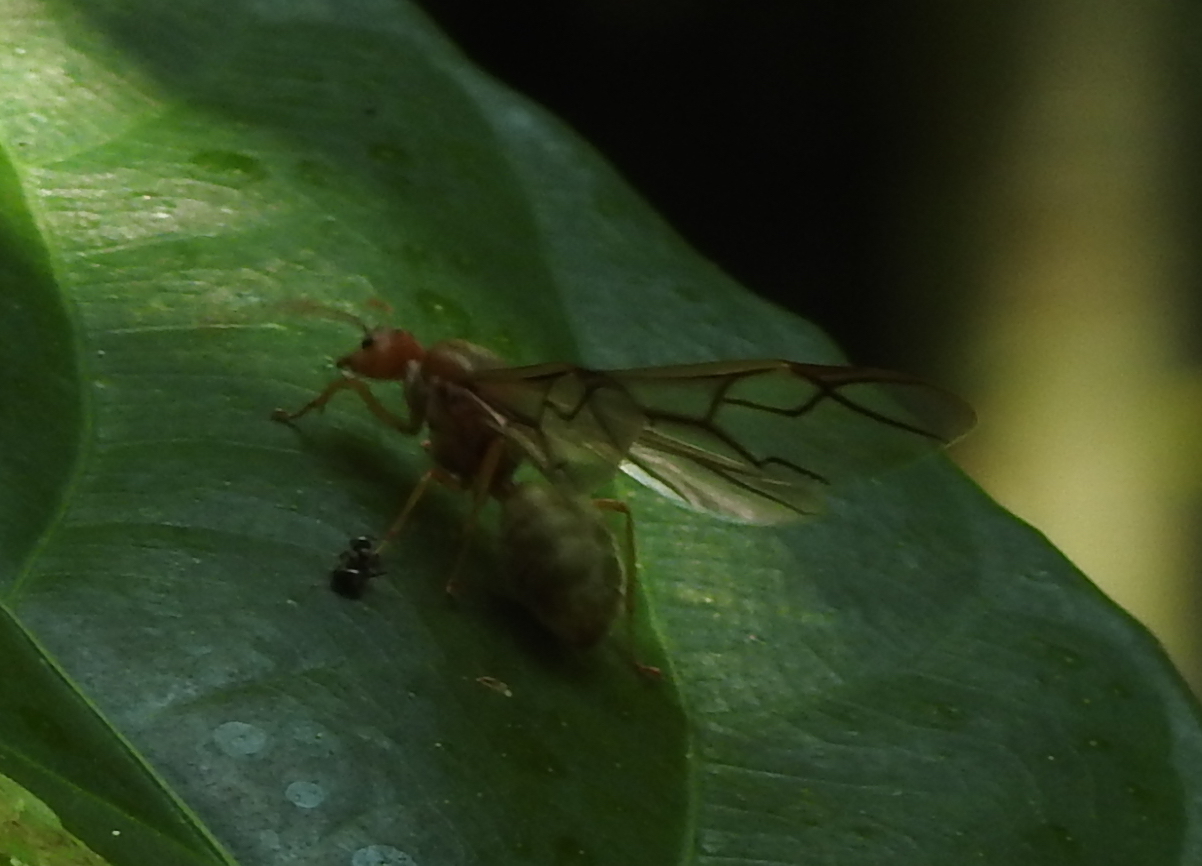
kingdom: Animalia
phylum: Arthropoda
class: Insecta
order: Hymenoptera
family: Formicidae
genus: Oecophylla
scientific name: Oecophylla smaragdina
